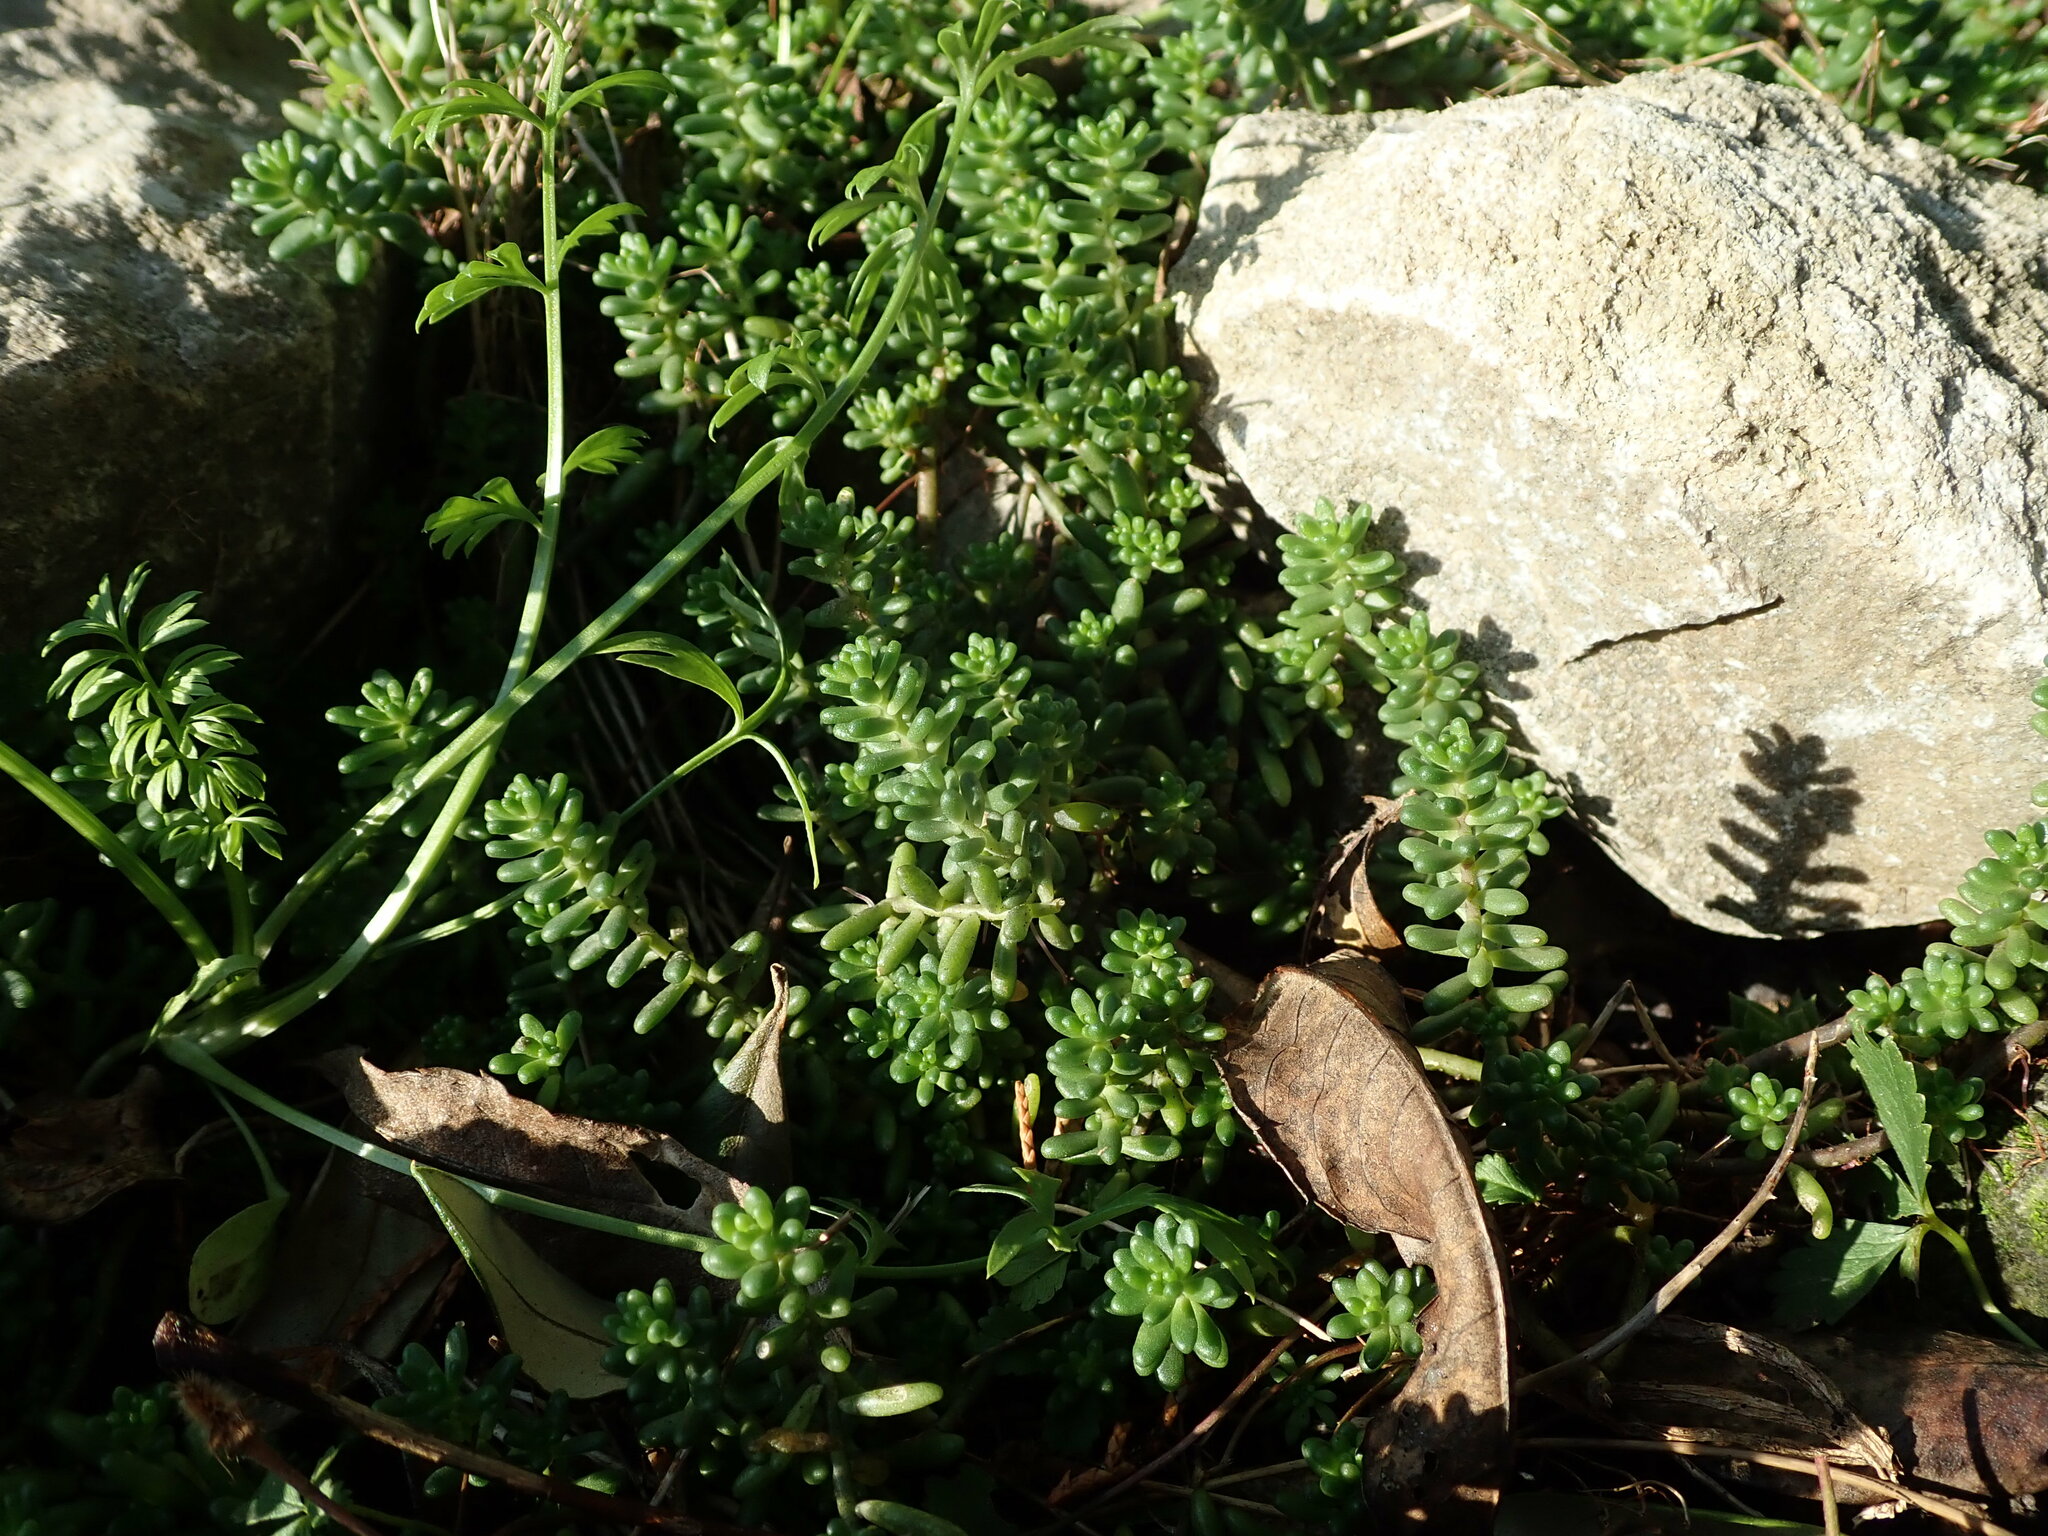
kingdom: Plantae
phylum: Tracheophyta
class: Magnoliopsida
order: Saxifragales
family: Crassulaceae
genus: Sedum
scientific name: Sedum album
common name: White stonecrop
